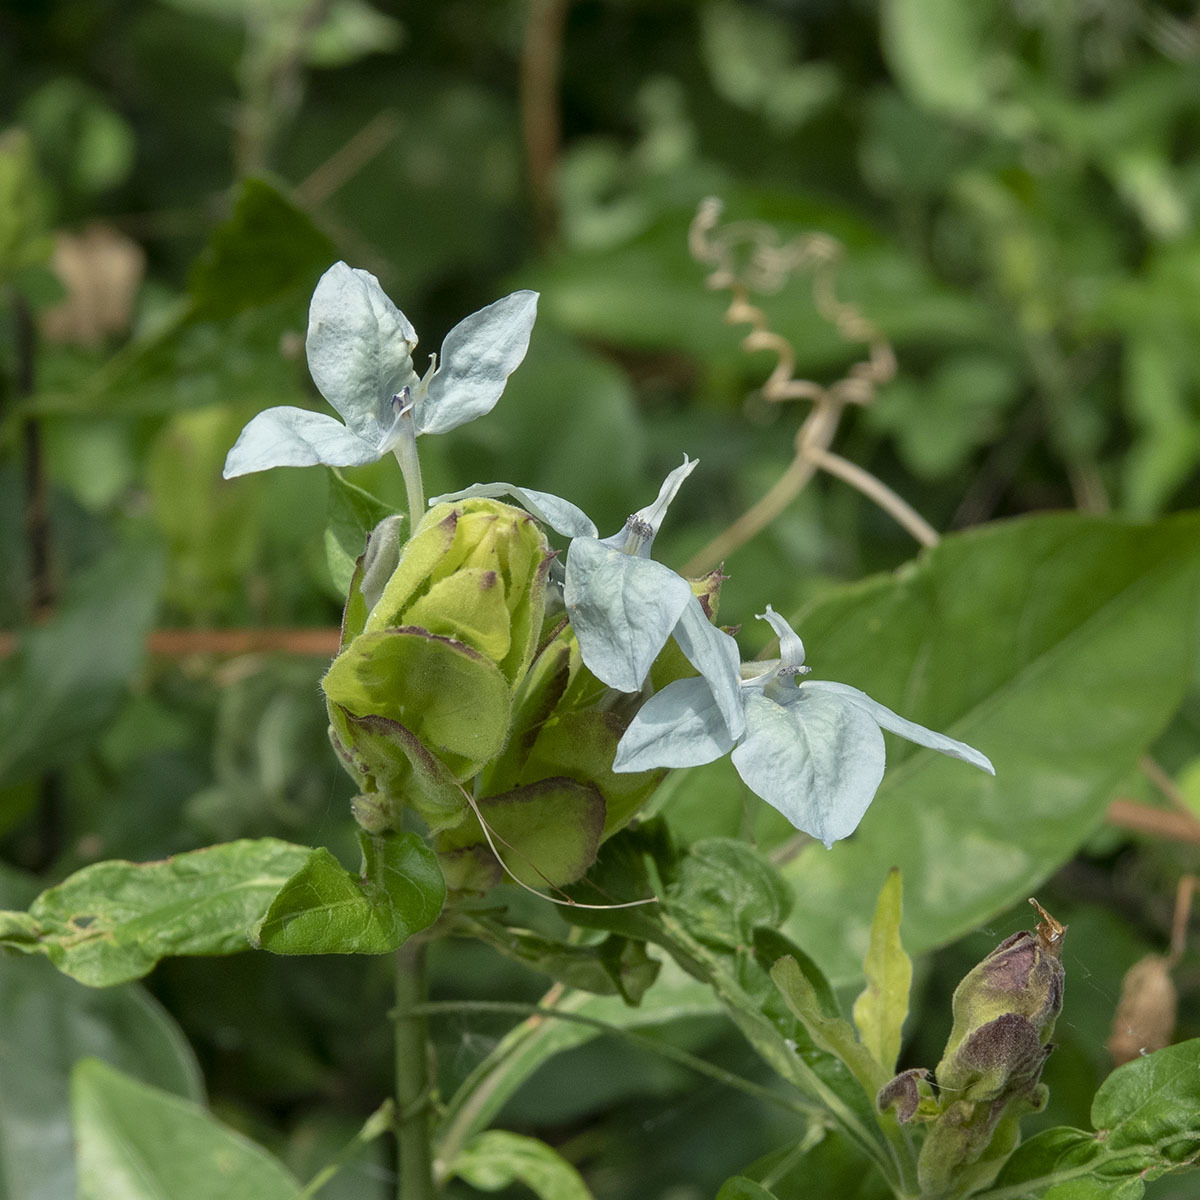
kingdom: Plantae
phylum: Tracheophyta
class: Magnoliopsida
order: Lamiales
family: Acanthaceae
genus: Ecbolium
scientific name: Ecbolium ligustrinum
